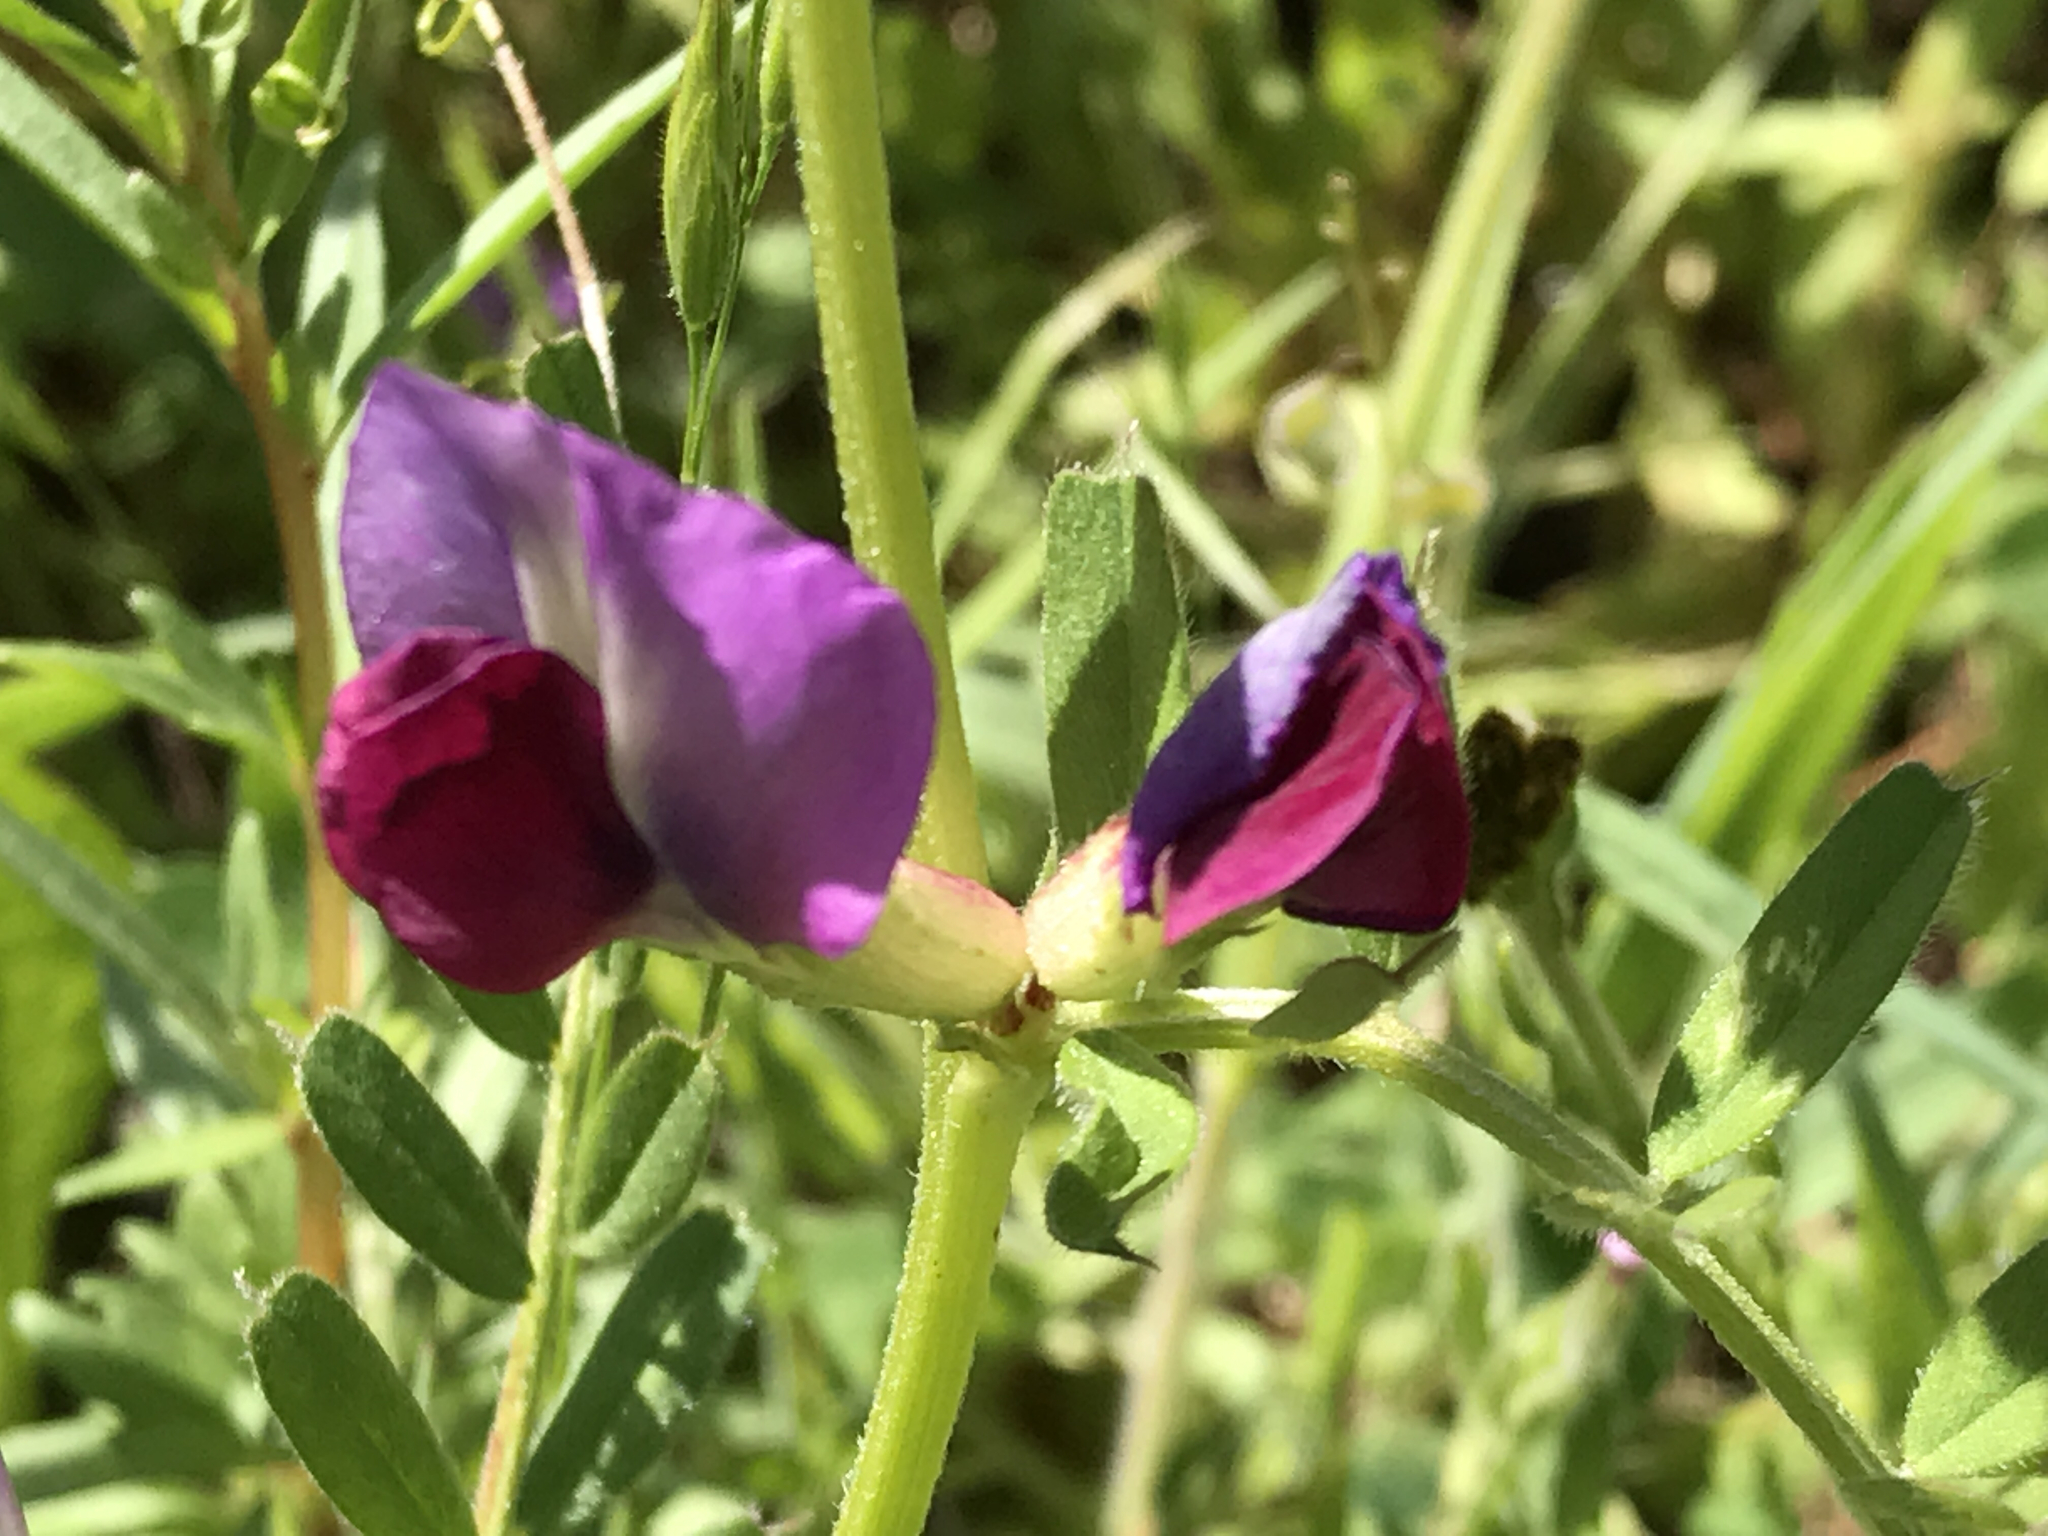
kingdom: Plantae
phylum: Tracheophyta
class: Magnoliopsida
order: Fabales
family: Fabaceae
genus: Vicia
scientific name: Vicia sativa
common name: Garden vetch
